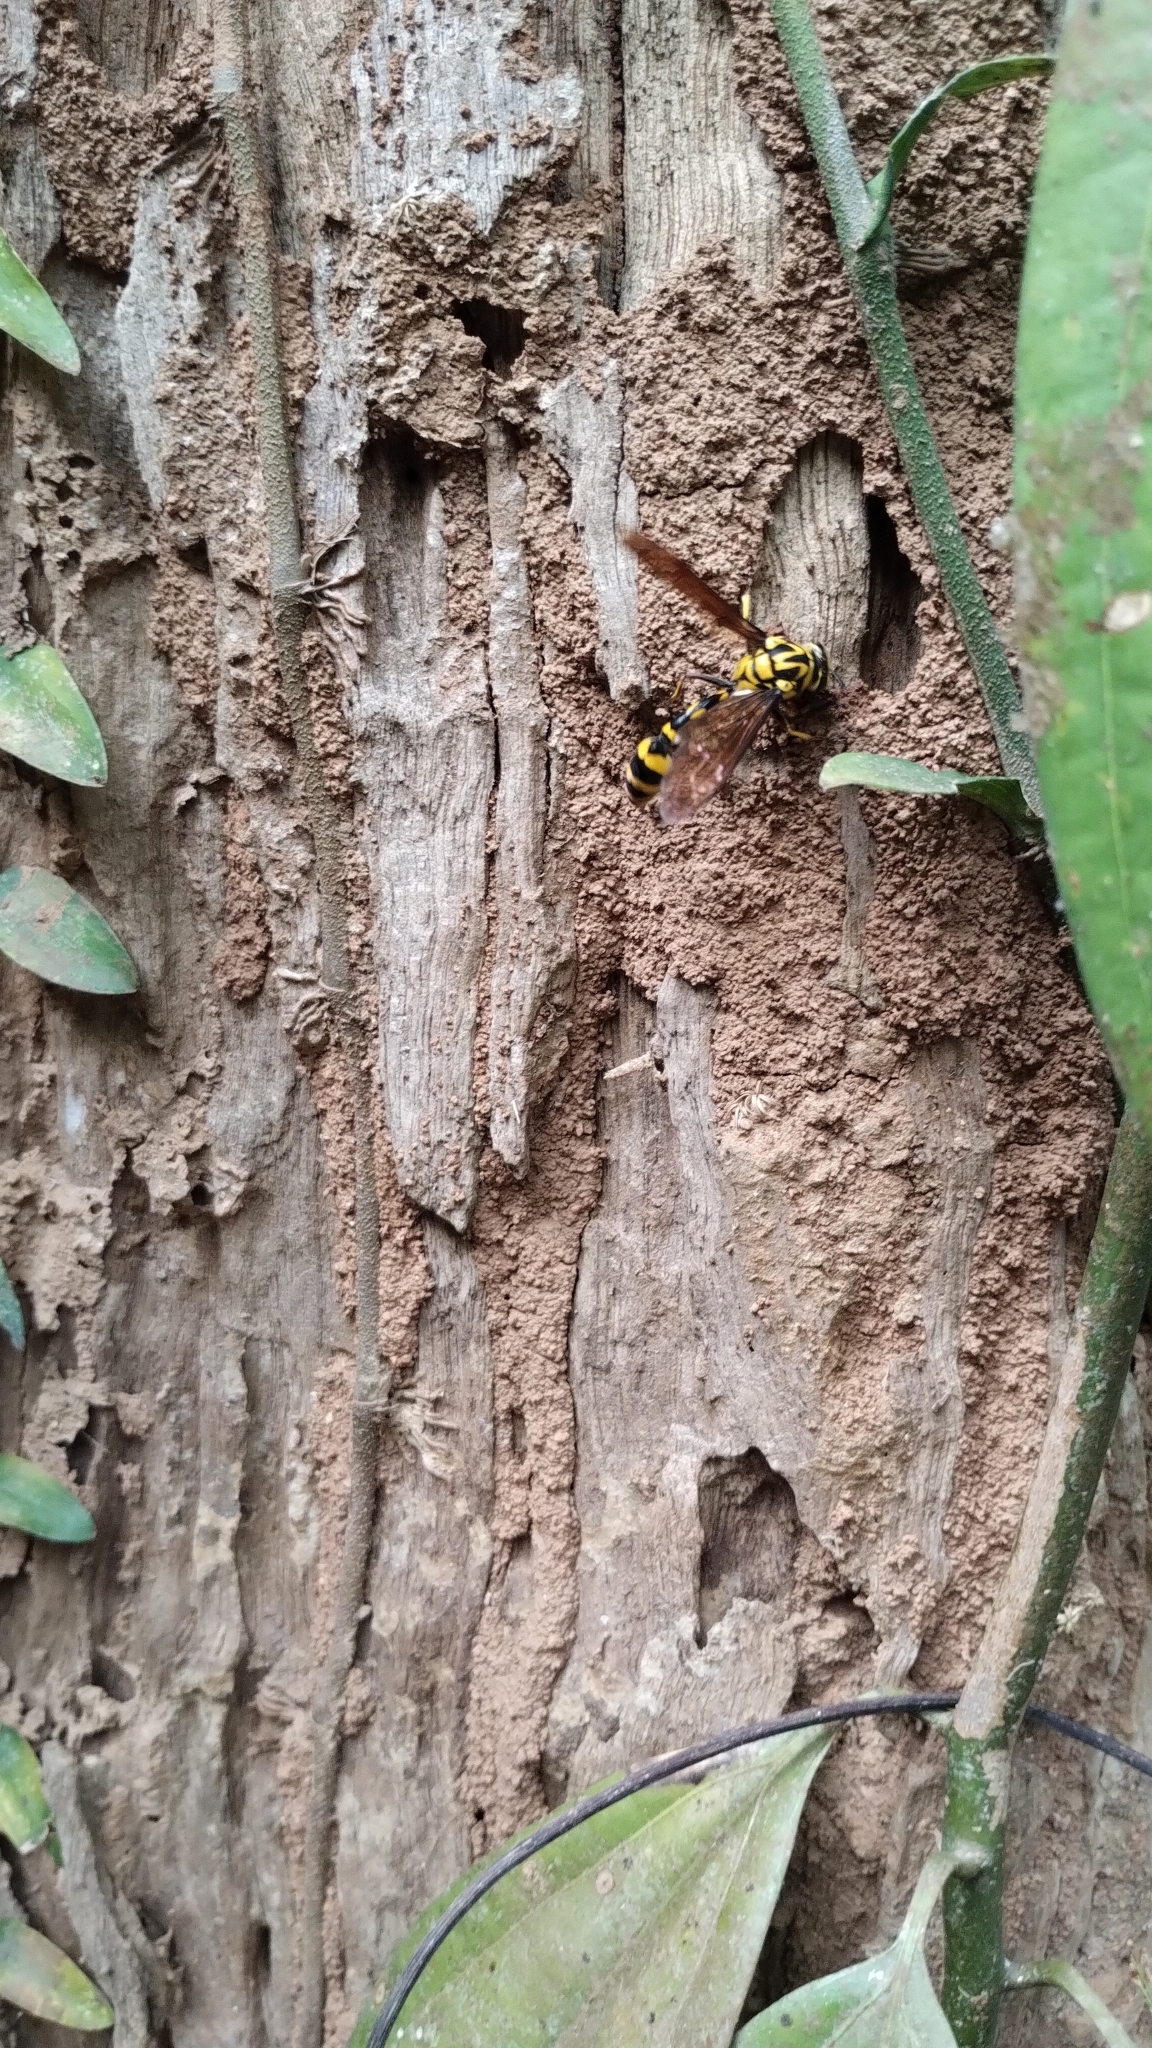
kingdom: Animalia
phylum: Arthropoda
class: Insecta
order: Hymenoptera
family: Eumenidae
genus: Phimenes
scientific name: Phimenes flavopictus
